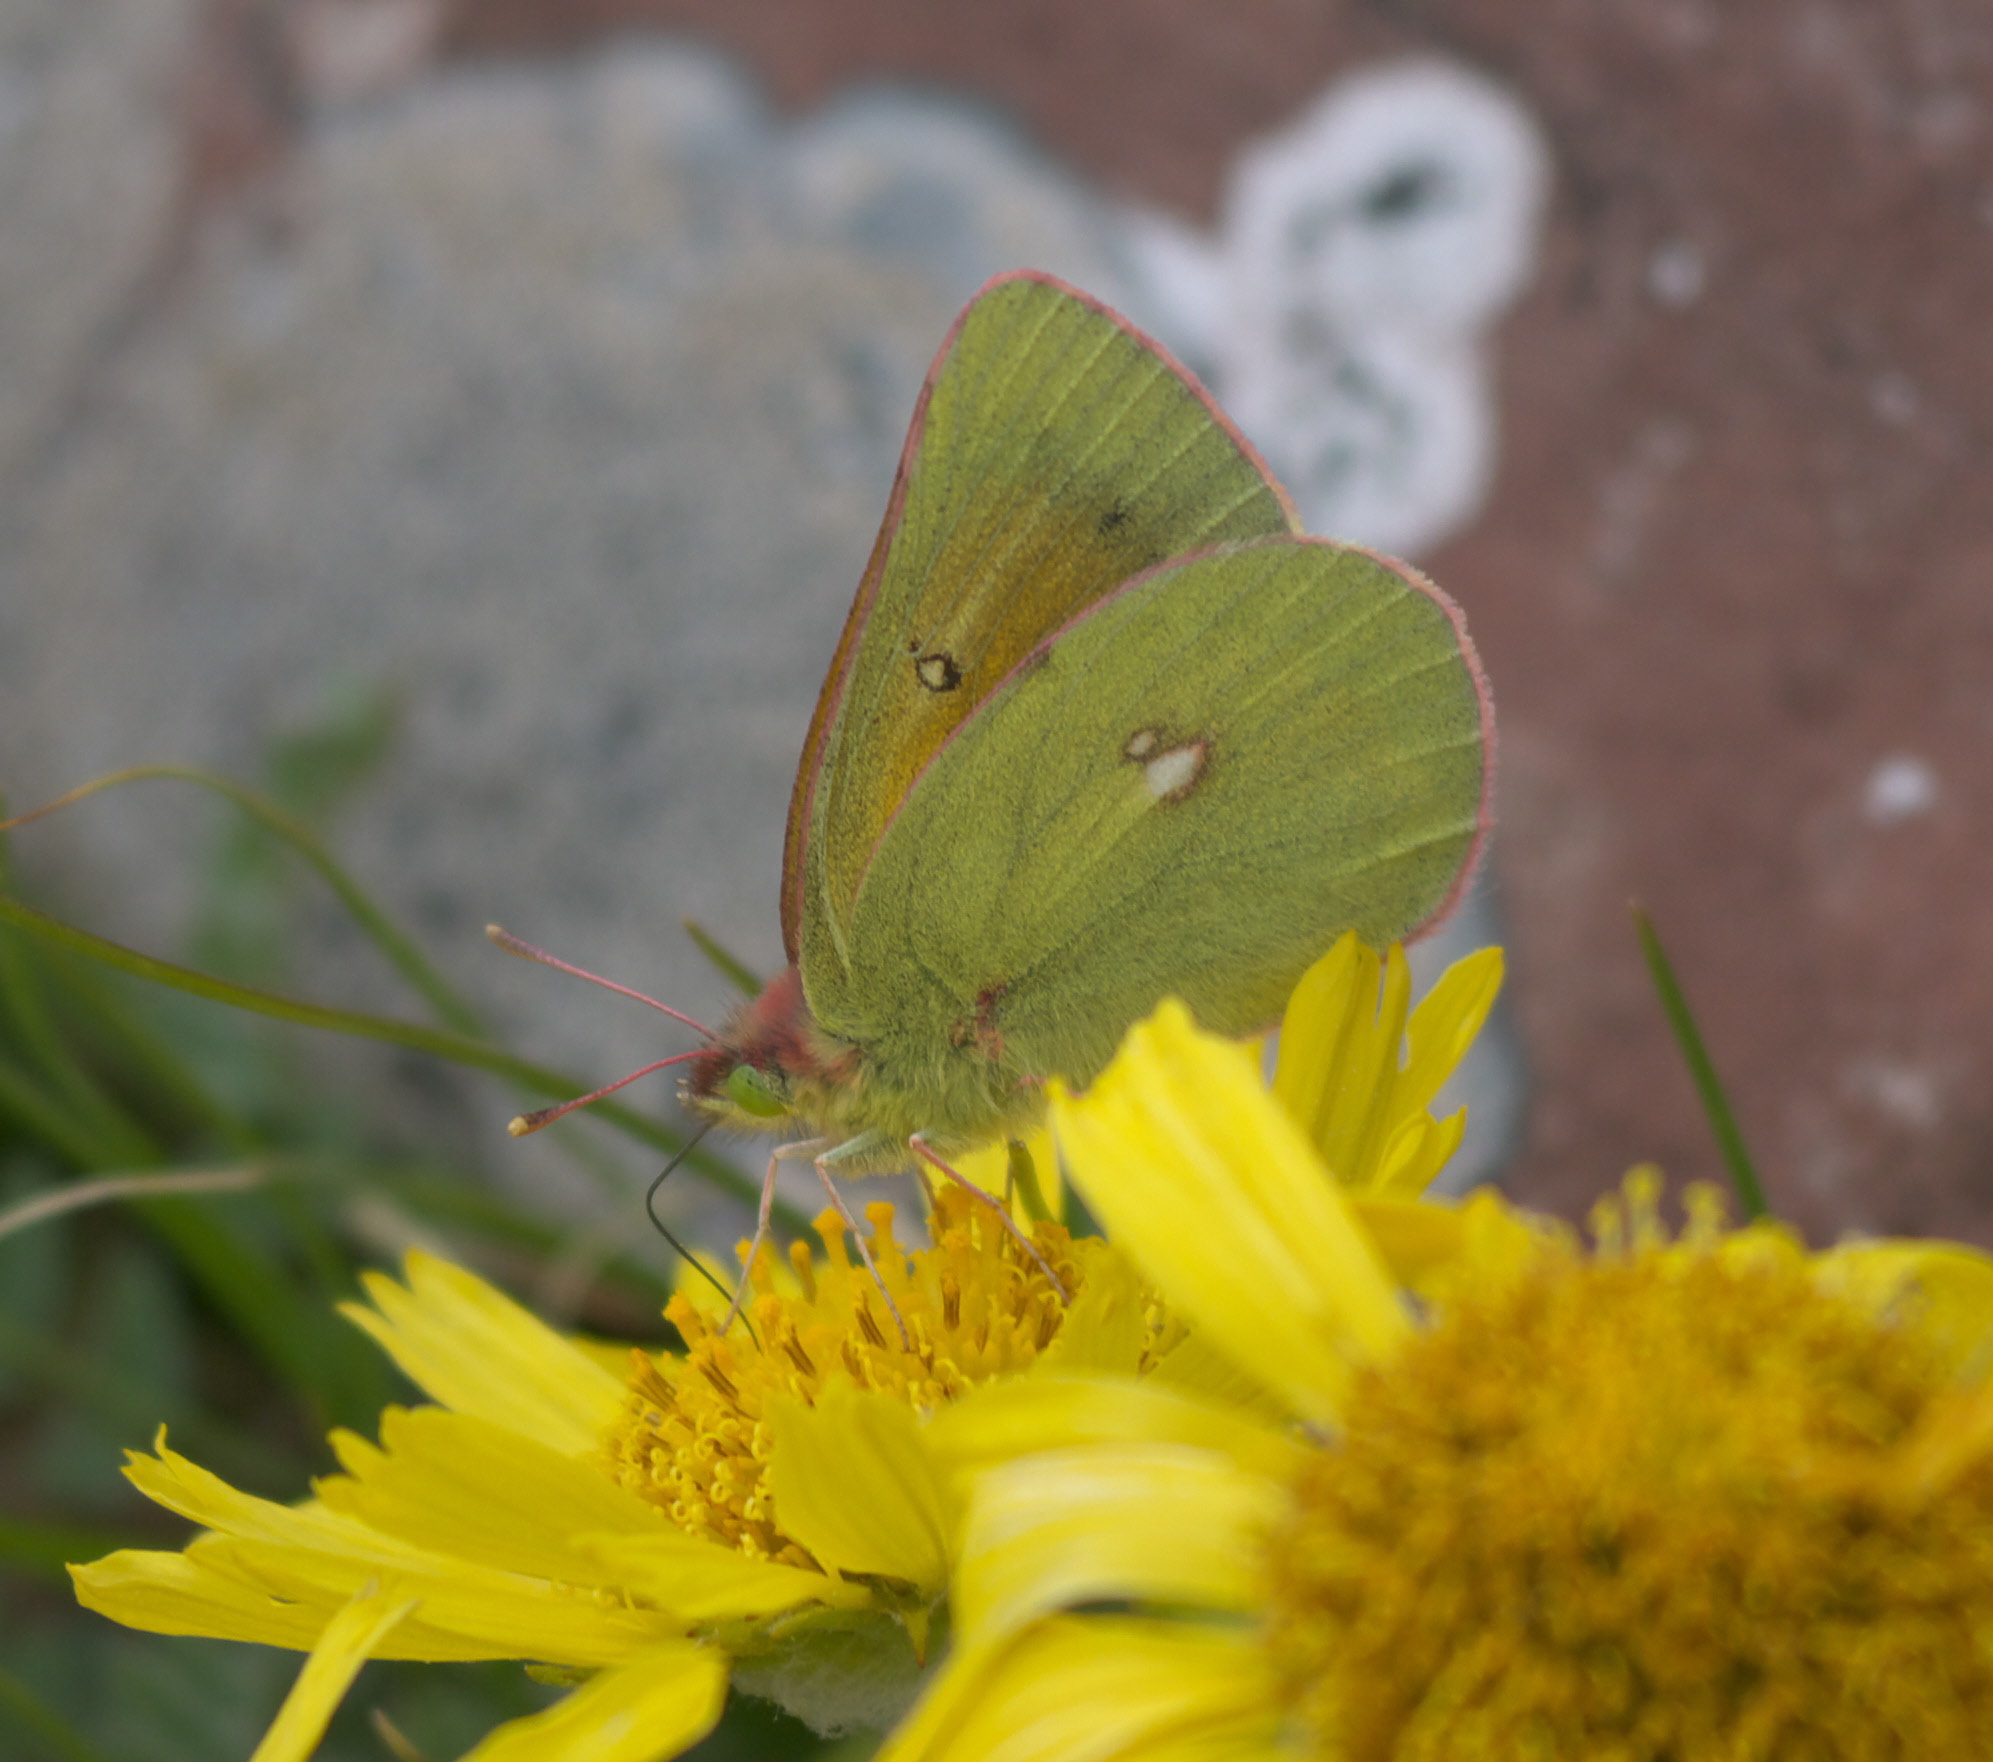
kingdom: Animalia
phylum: Arthropoda
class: Insecta
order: Lepidoptera
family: Pieridae
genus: Colias
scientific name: Colias meadii
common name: Mead's sulphur
